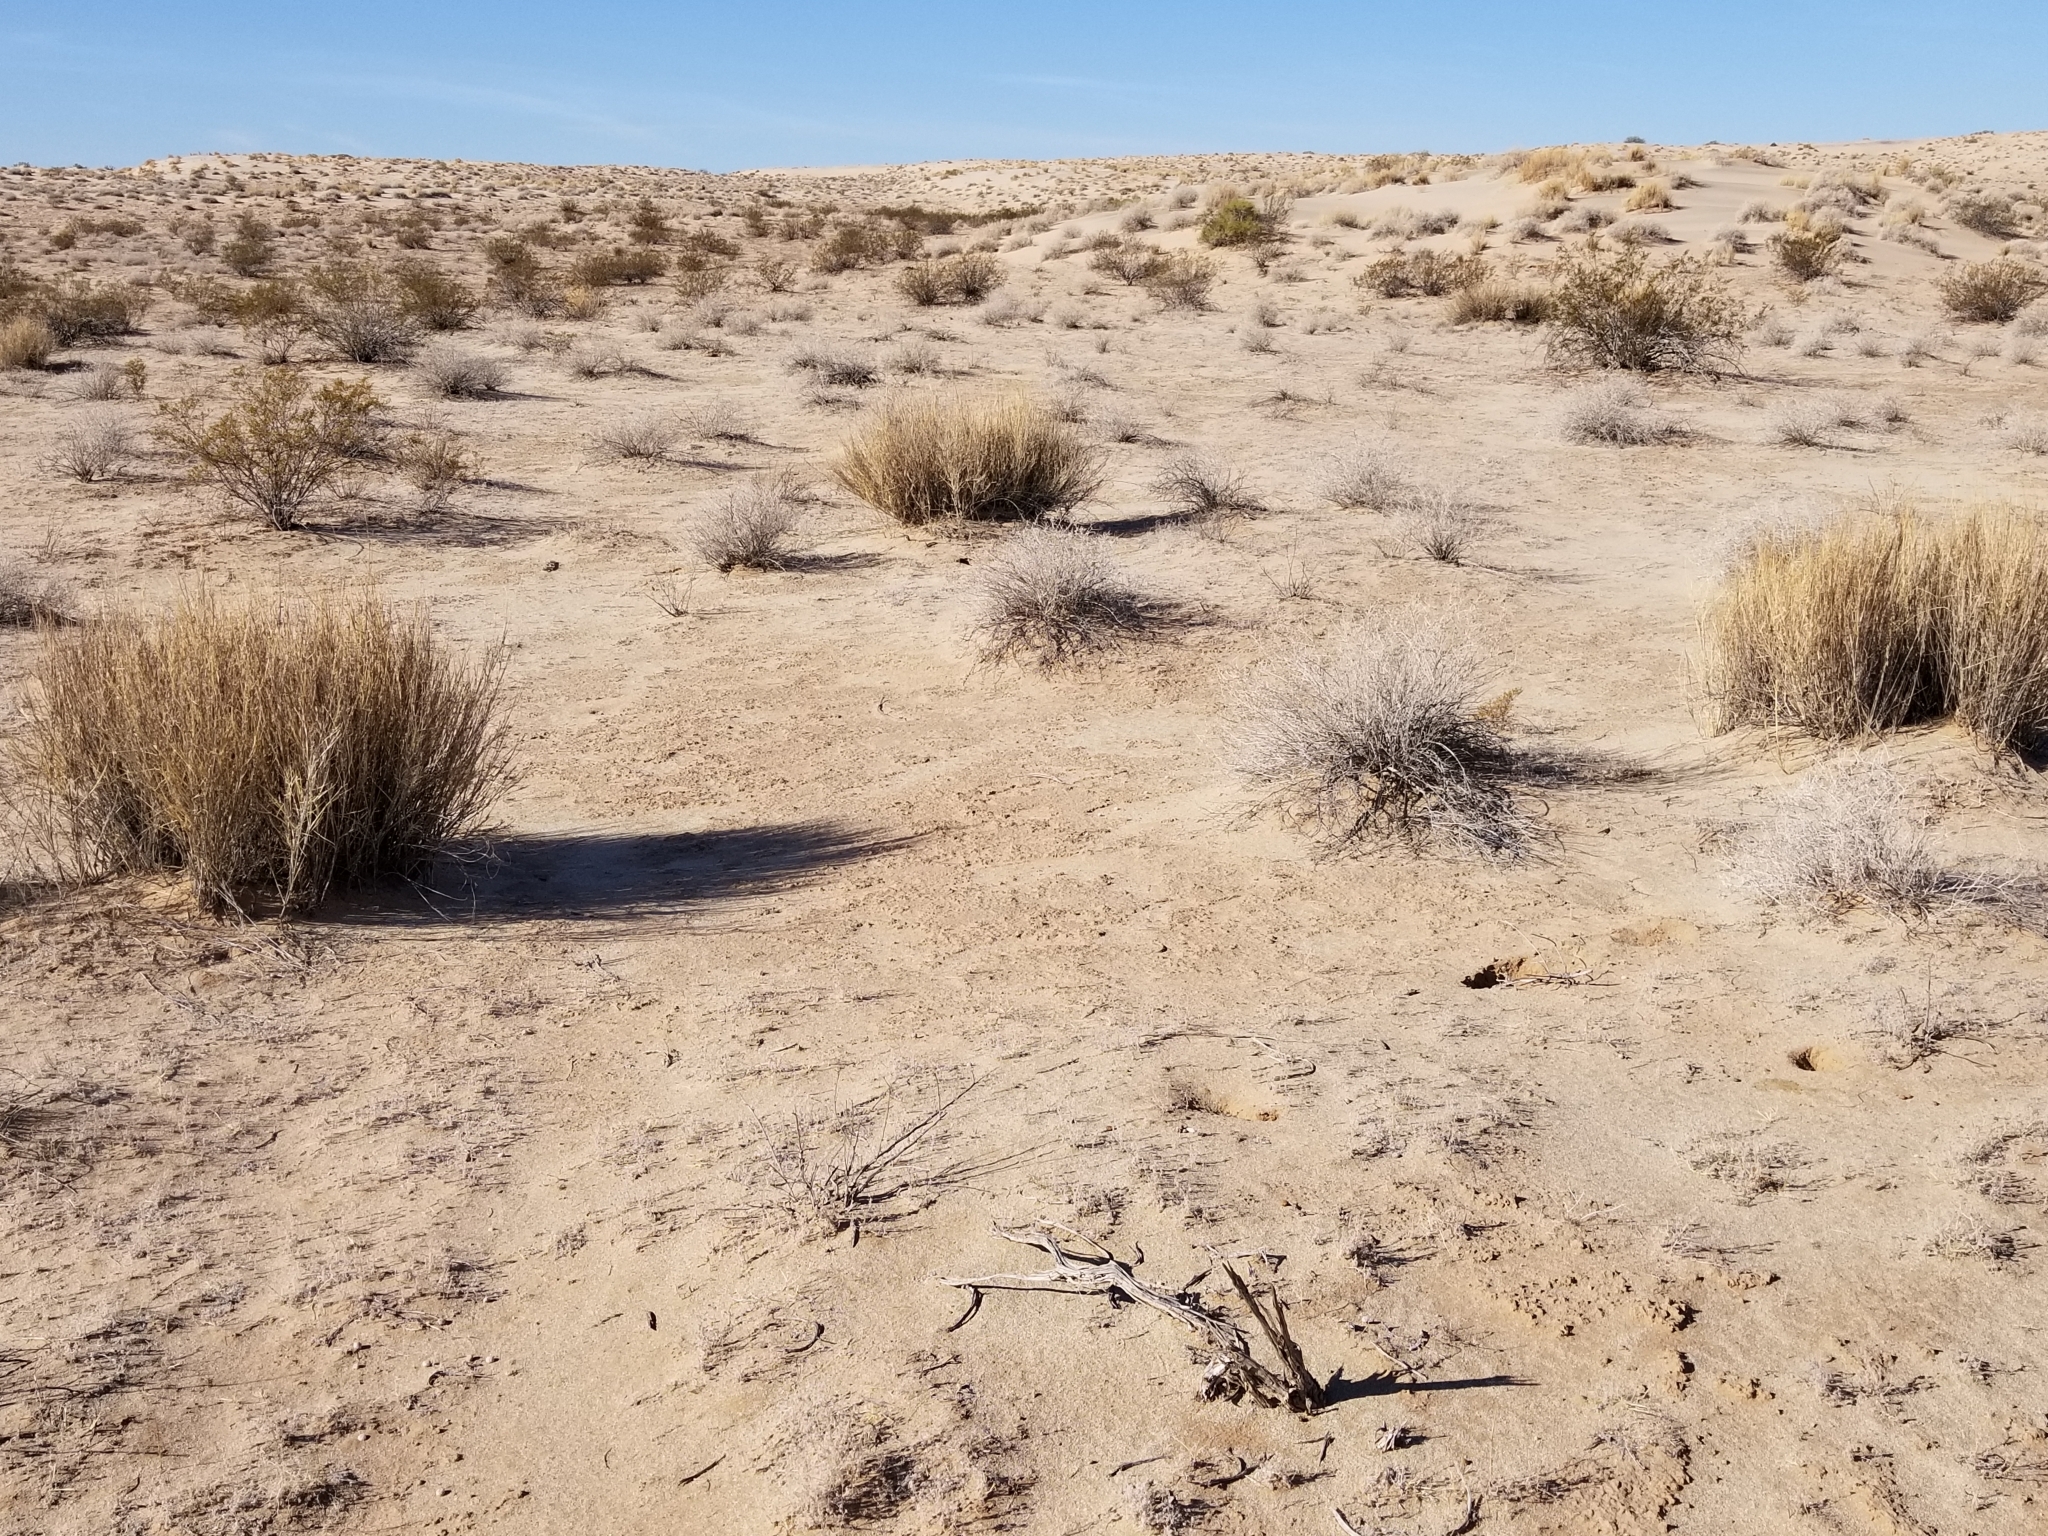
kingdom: Plantae
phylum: Tracheophyta
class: Magnoliopsida
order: Asterales
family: Asteraceae
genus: Ambrosia
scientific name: Ambrosia dumosa
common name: Bur-sage
